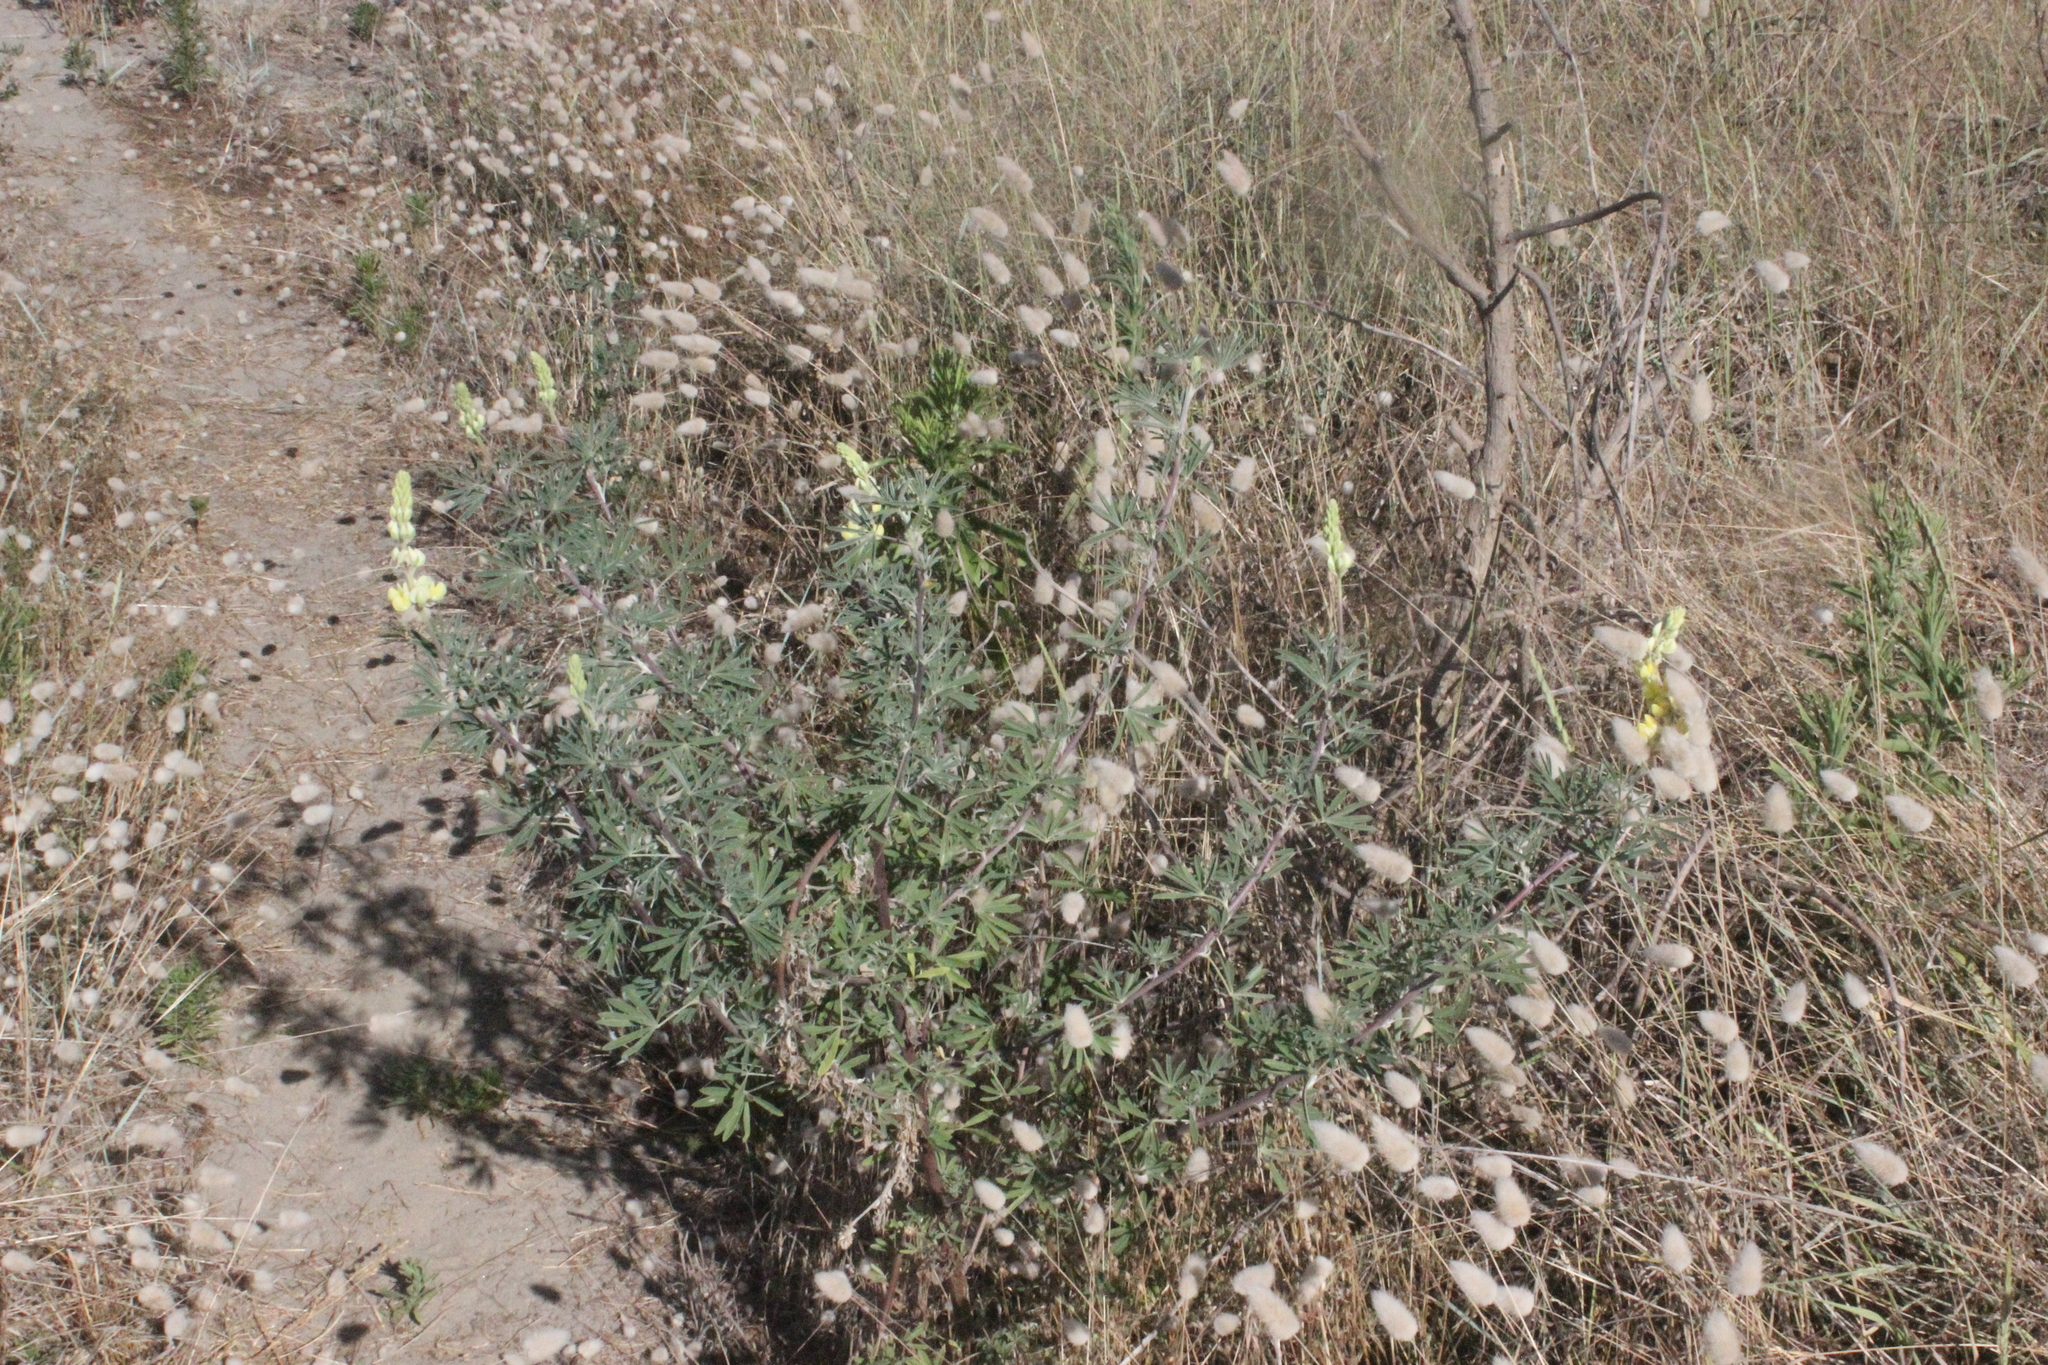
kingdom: Plantae
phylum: Tracheophyta
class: Magnoliopsida
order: Fabales
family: Fabaceae
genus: Lupinus
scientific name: Lupinus arboreus
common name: Yellow bush lupine
